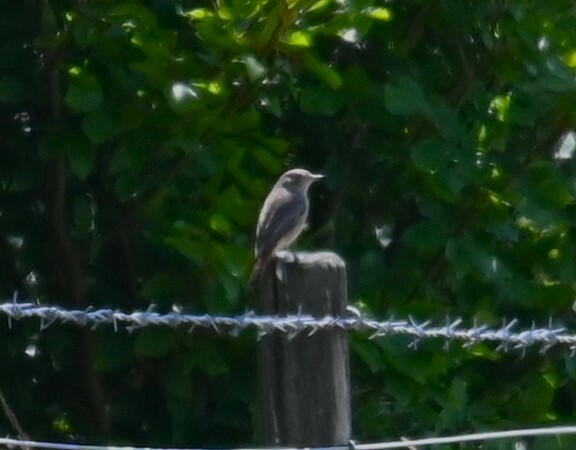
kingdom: Animalia
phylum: Chordata
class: Aves
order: Passeriformes
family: Muscicapidae
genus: Phoenicurus
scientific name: Phoenicurus phoenicurus
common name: Common redstart
